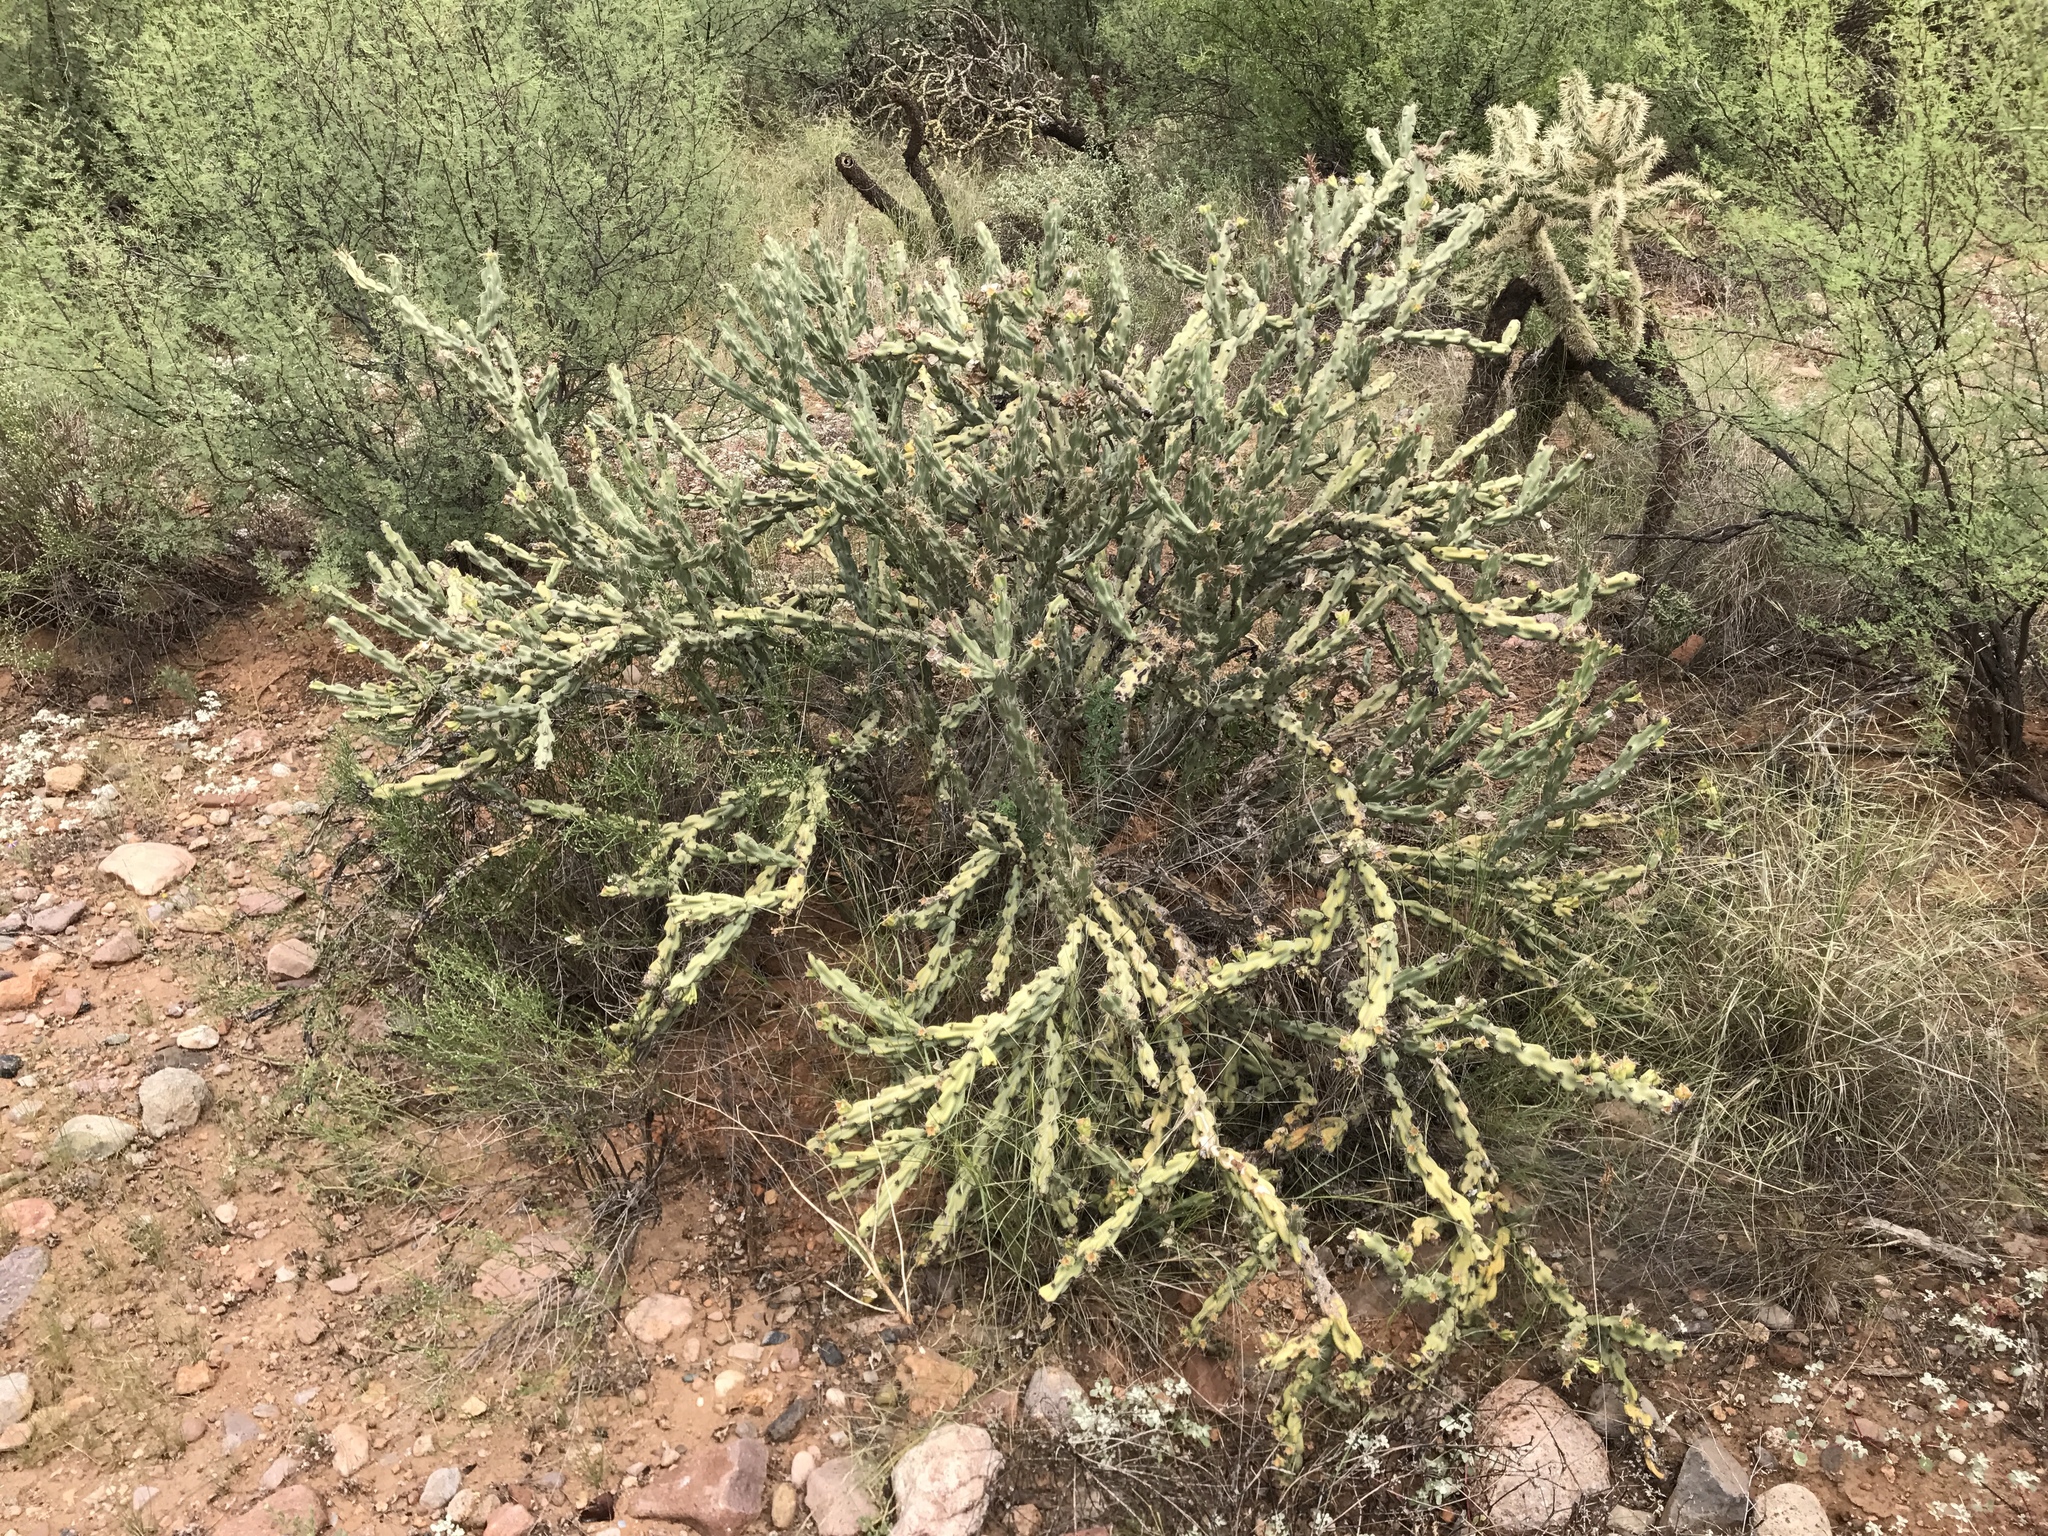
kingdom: Plantae
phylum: Tracheophyta
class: Magnoliopsida
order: Caryophyllales
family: Cactaceae
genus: Cylindropuntia
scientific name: Cylindropuntia acanthocarpa
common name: Buckhorn cholla
